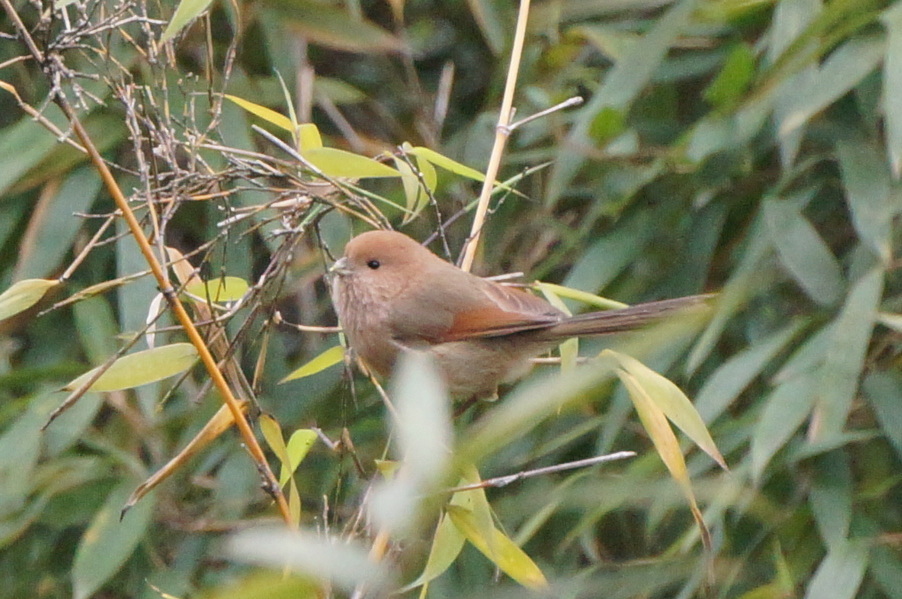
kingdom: Animalia
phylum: Chordata
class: Aves
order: Passeriformes
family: Sylviidae
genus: Sinosuthora
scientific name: Sinosuthora webbiana
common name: Vinous-throated parrotbill
